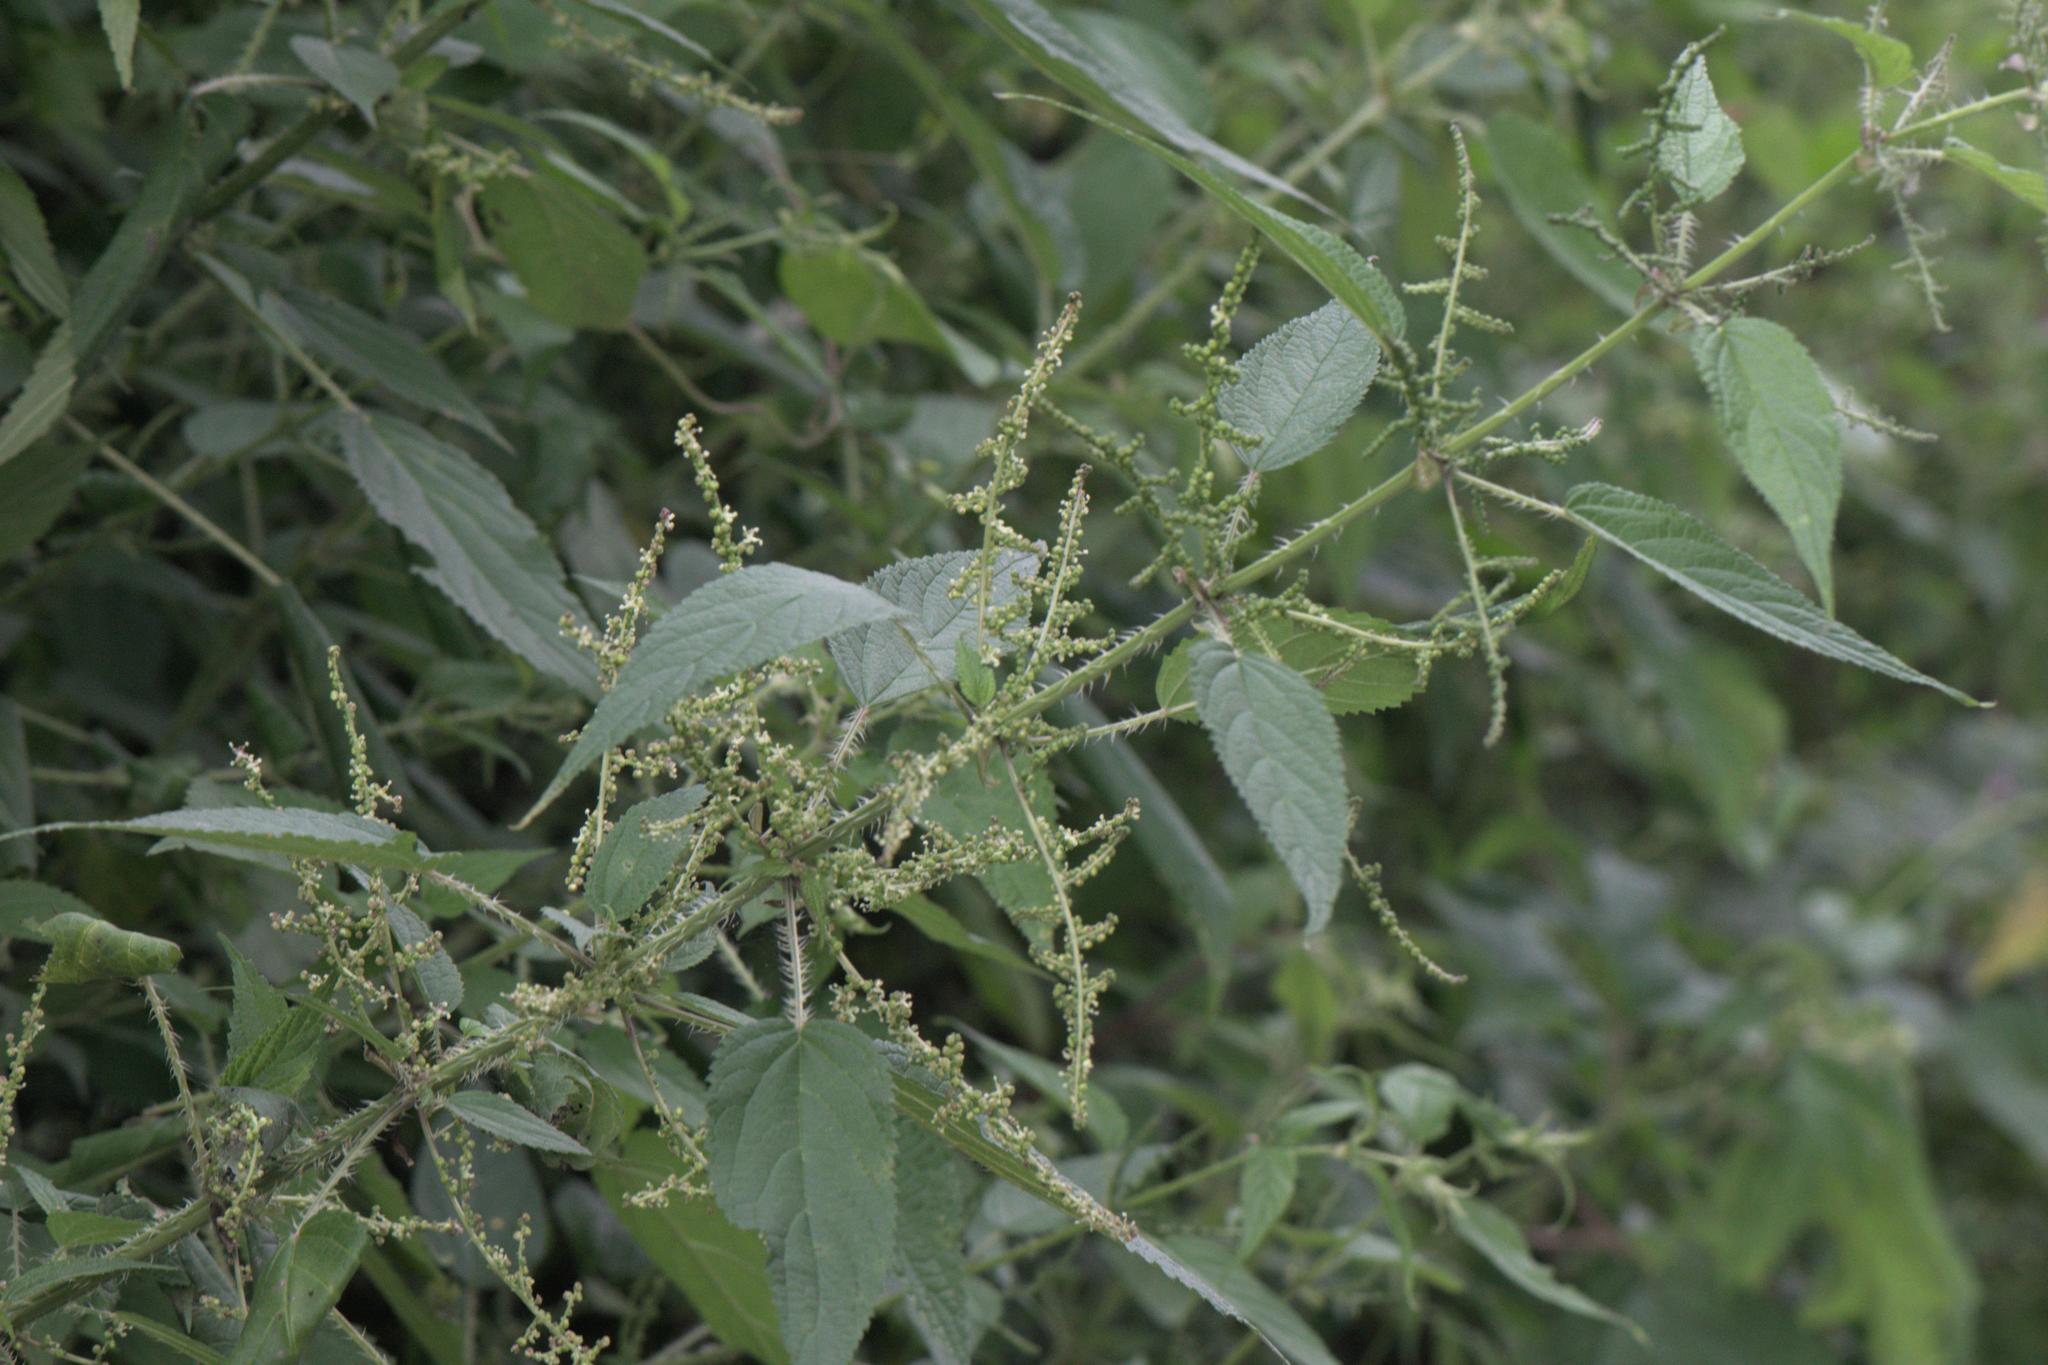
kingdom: Plantae
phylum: Tracheophyta
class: Magnoliopsida
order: Rosales
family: Urticaceae
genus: Urtica
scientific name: Urtica dioica
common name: Common nettle
